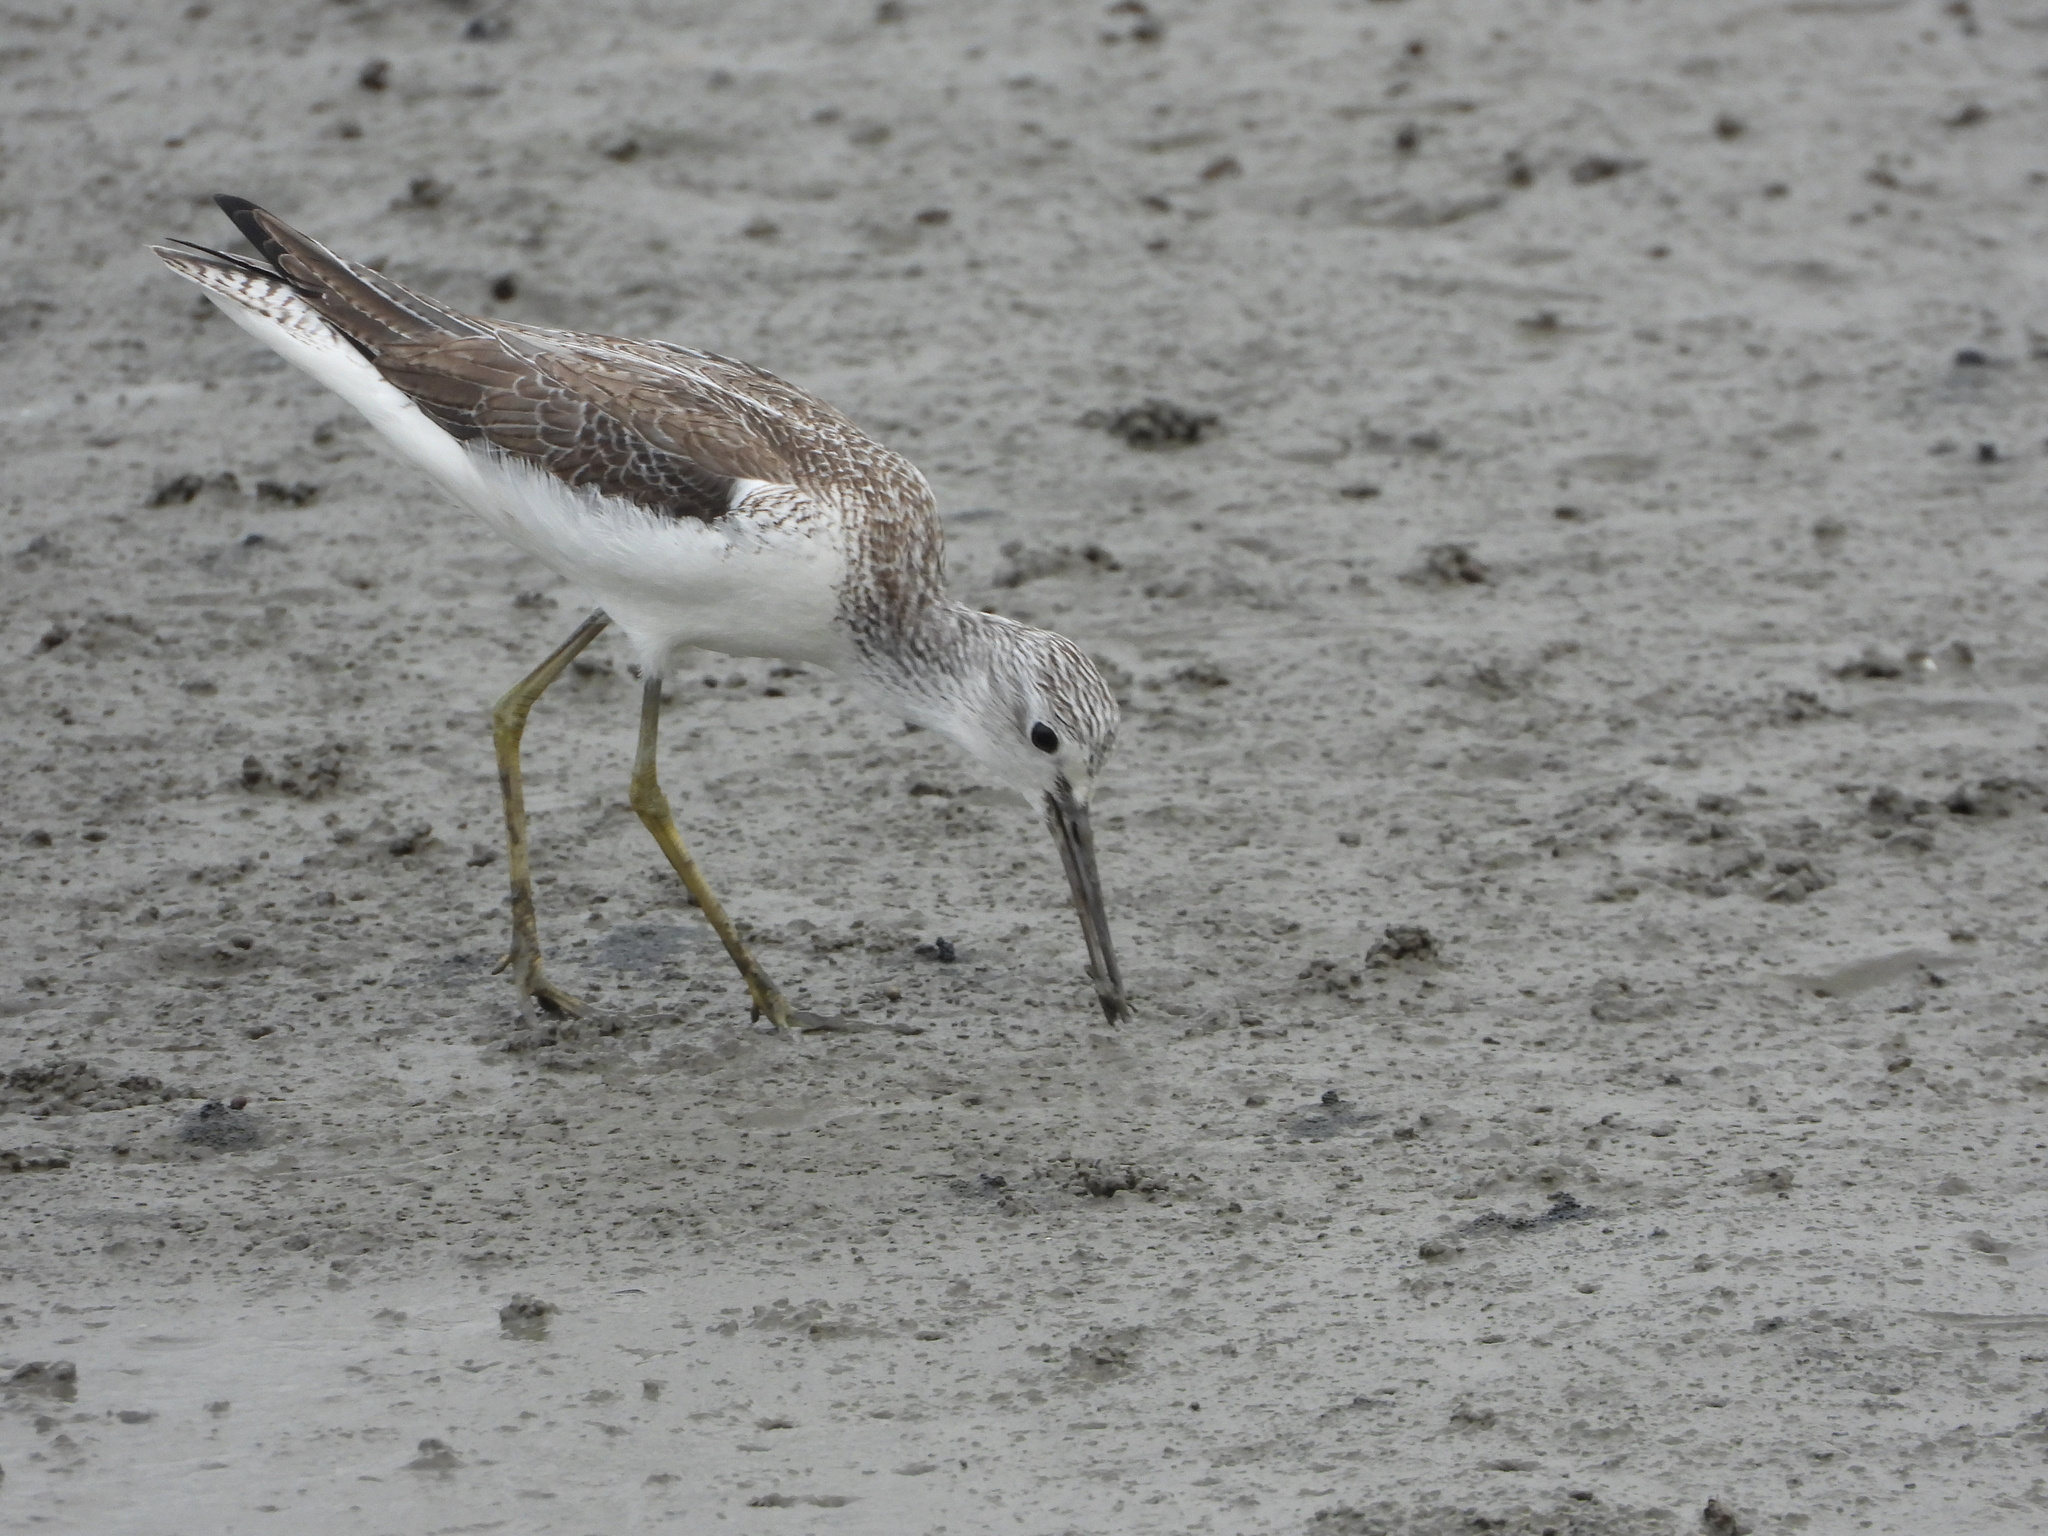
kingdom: Animalia
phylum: Chordata
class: Aves
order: Charadriiformes
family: Scolopacidae
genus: Tringa
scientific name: Tringa nebularia
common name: Common greenshank
